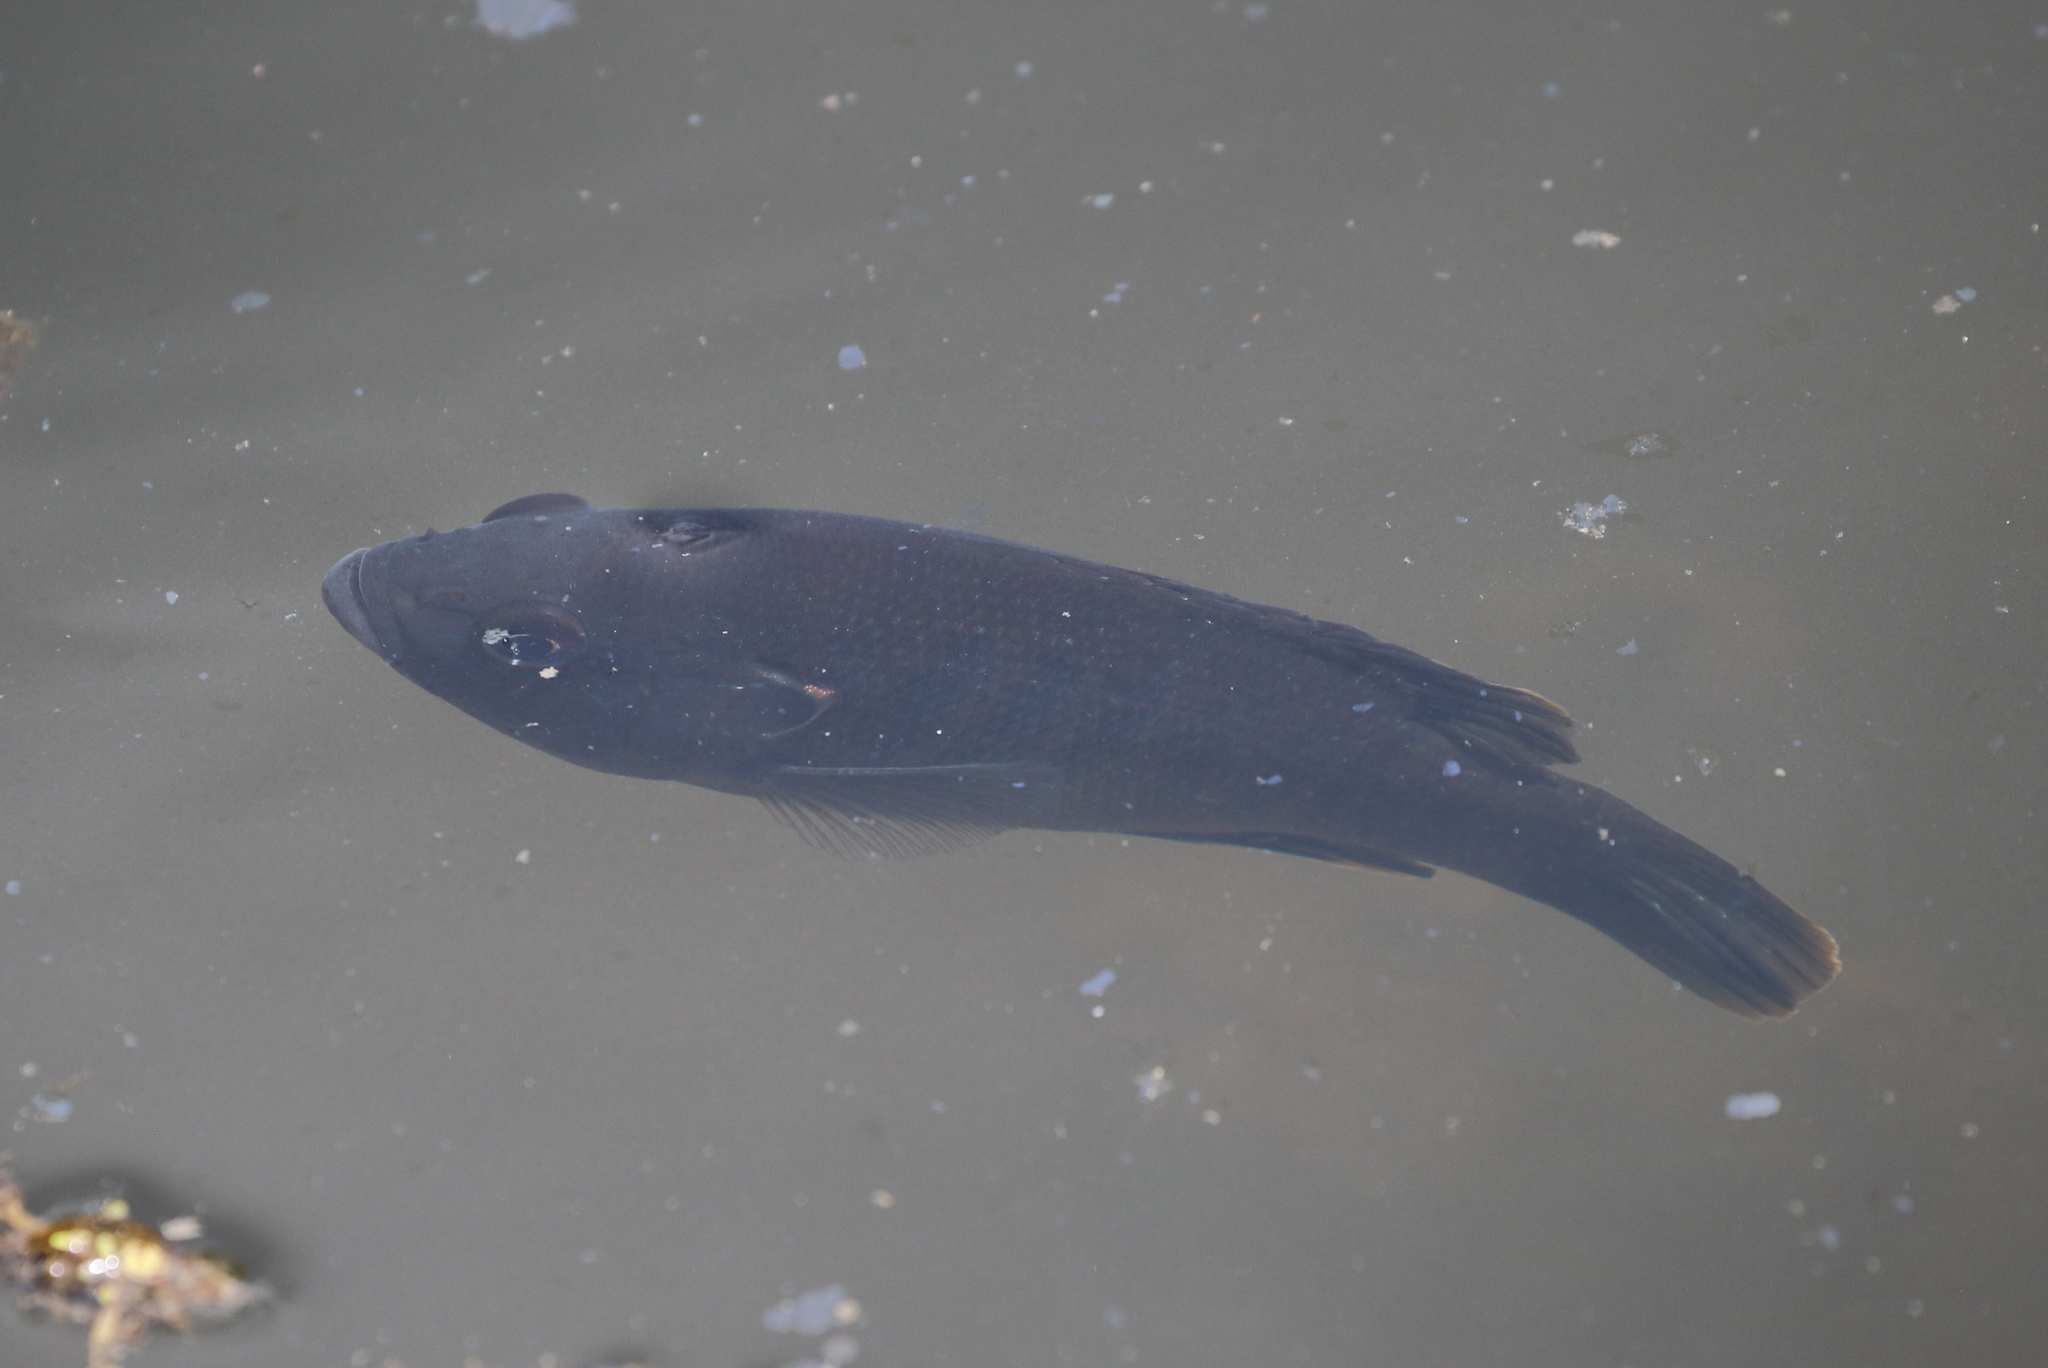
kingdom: Animalia
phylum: Chordata
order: Perciformes
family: Centrarchidae
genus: Lepomis
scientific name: Lepomis cyanellus
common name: Green sunfish
